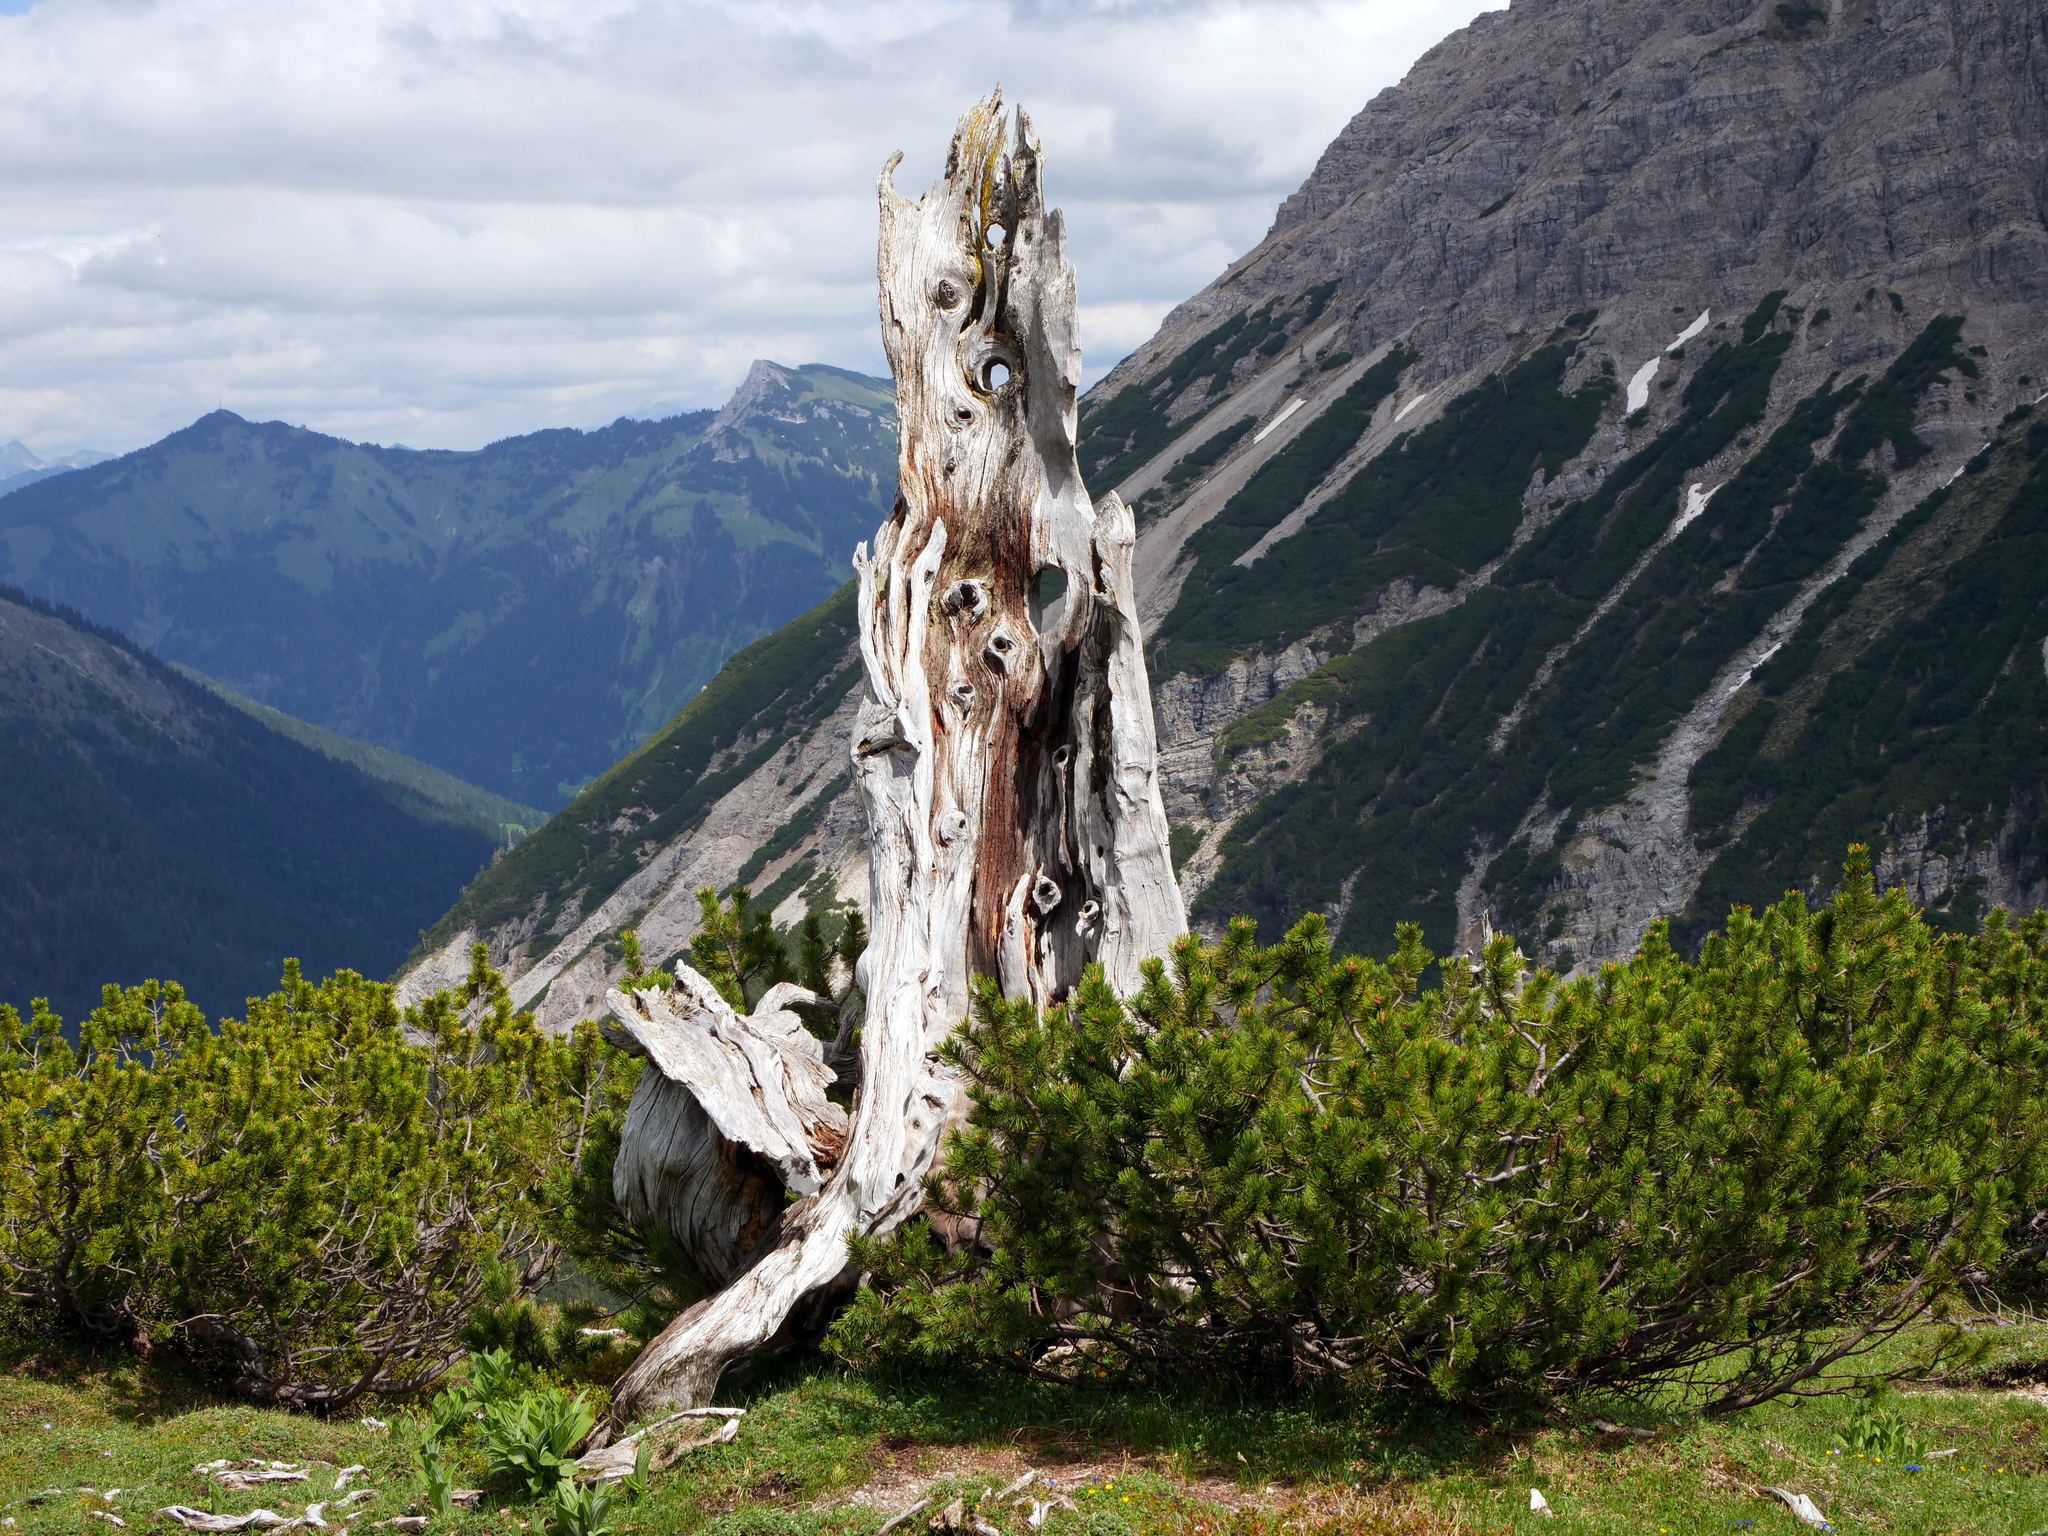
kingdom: Plantae
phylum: Tracheophyta
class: Pinopsida
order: Pinales
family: Pinaceae
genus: Pinus
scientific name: Pinus mugo
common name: Mugo pine
